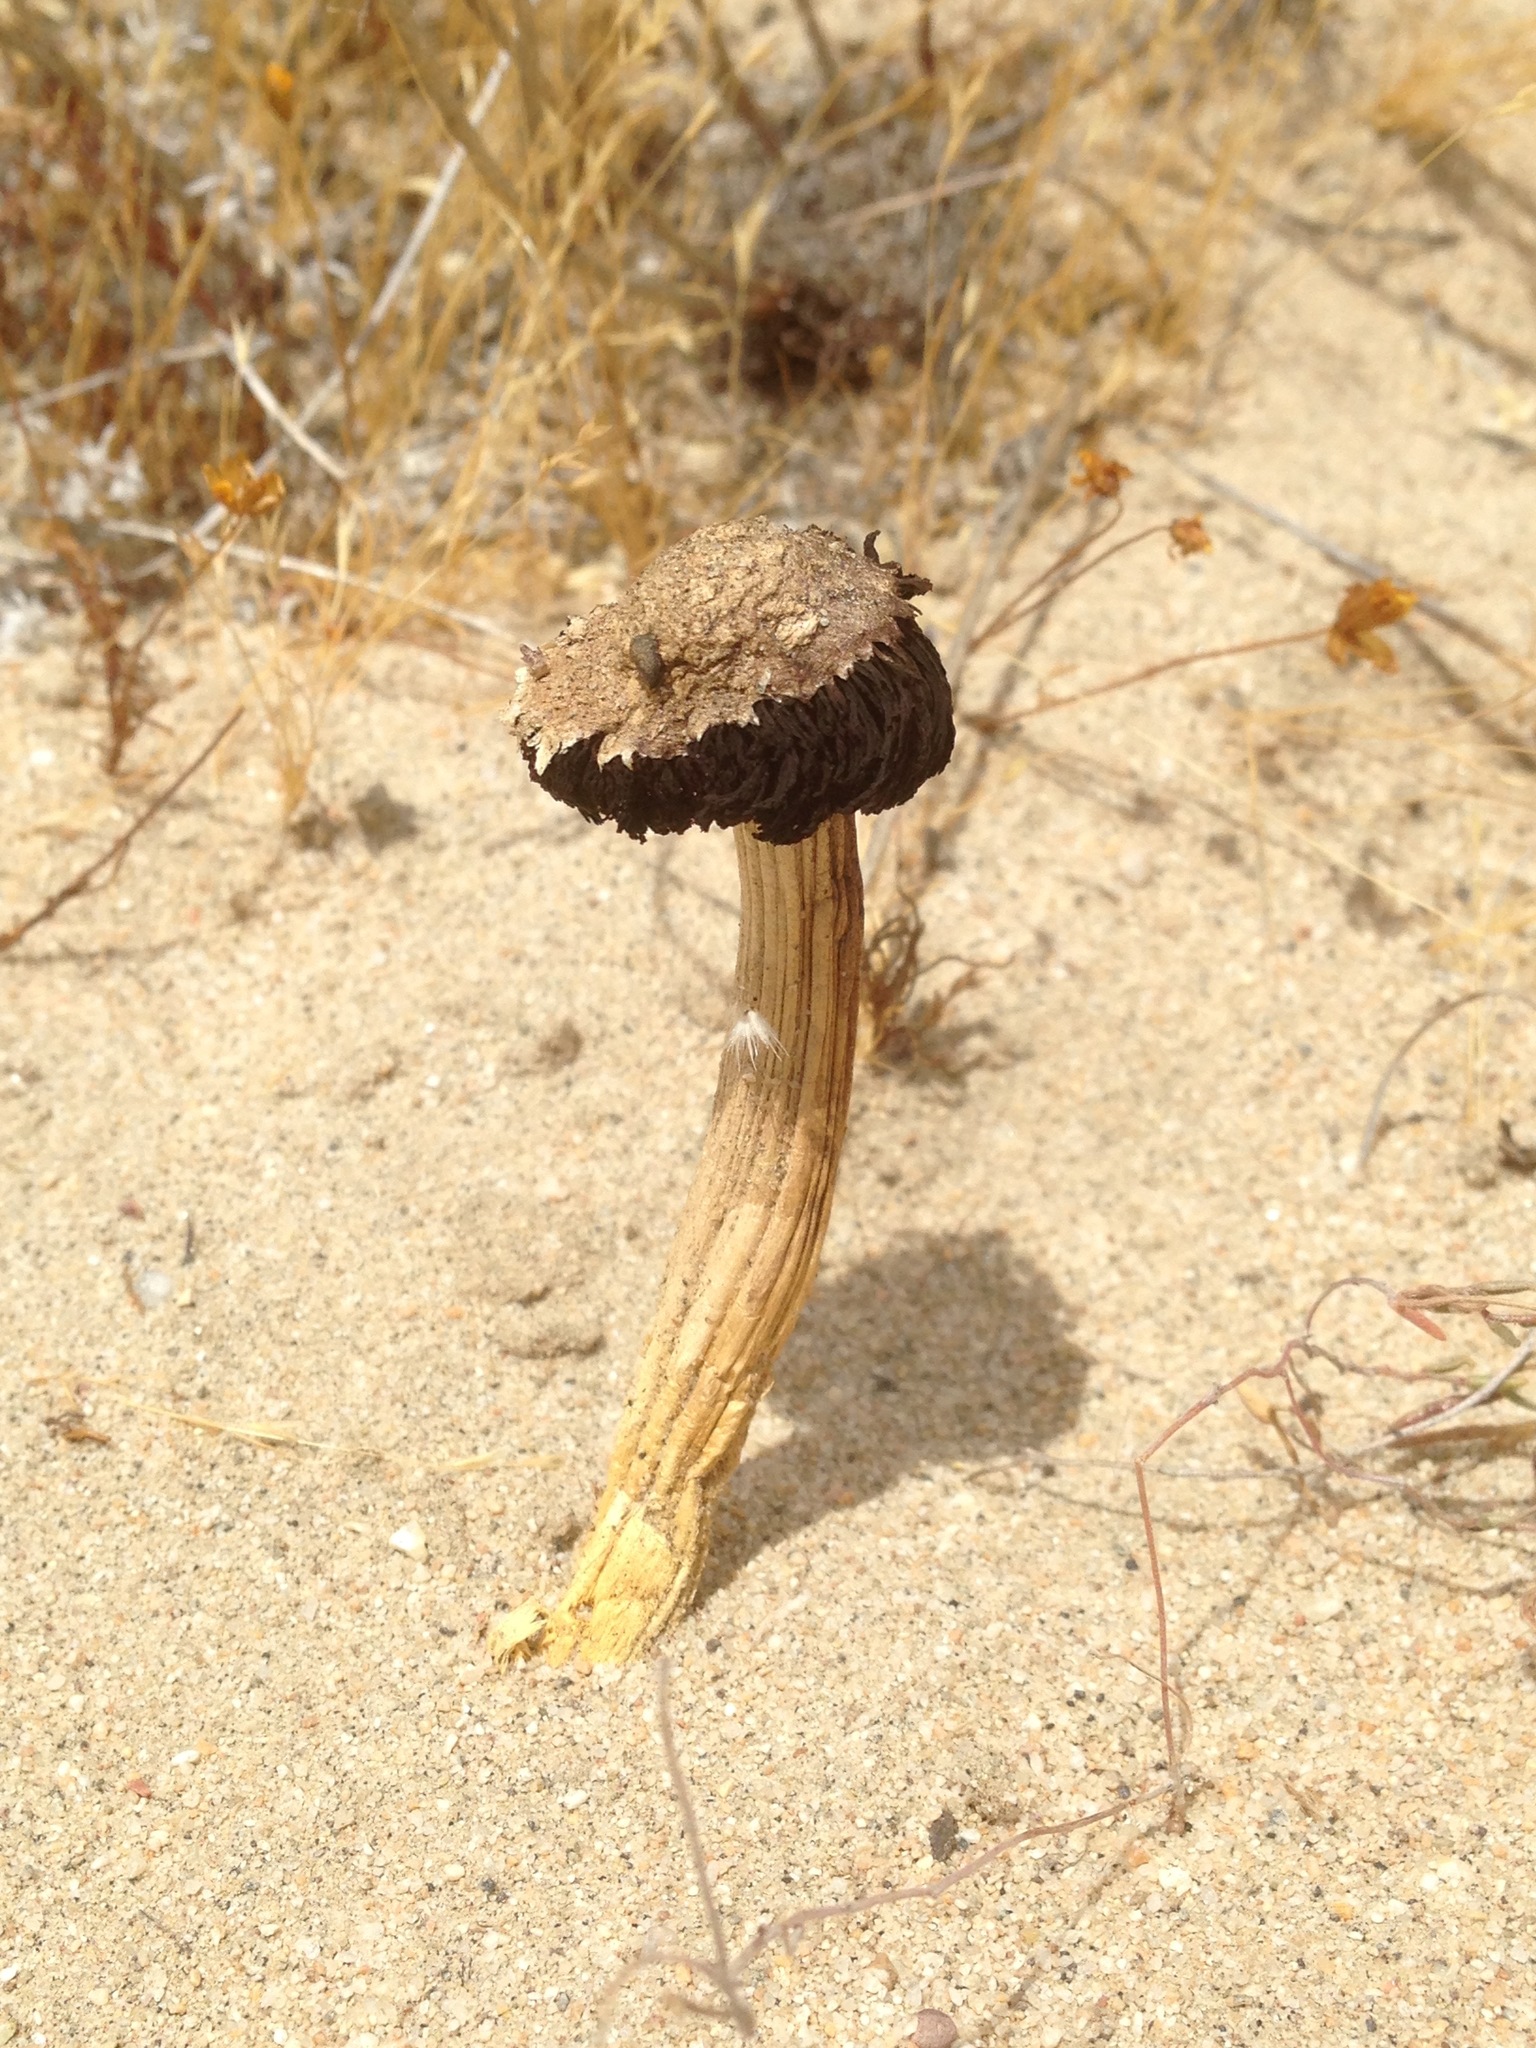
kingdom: Fungi
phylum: Basidiomycota
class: Agaricomycetes
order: Agaricales
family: Agaricaceae
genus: Agaricus
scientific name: Agaricus zelleri
